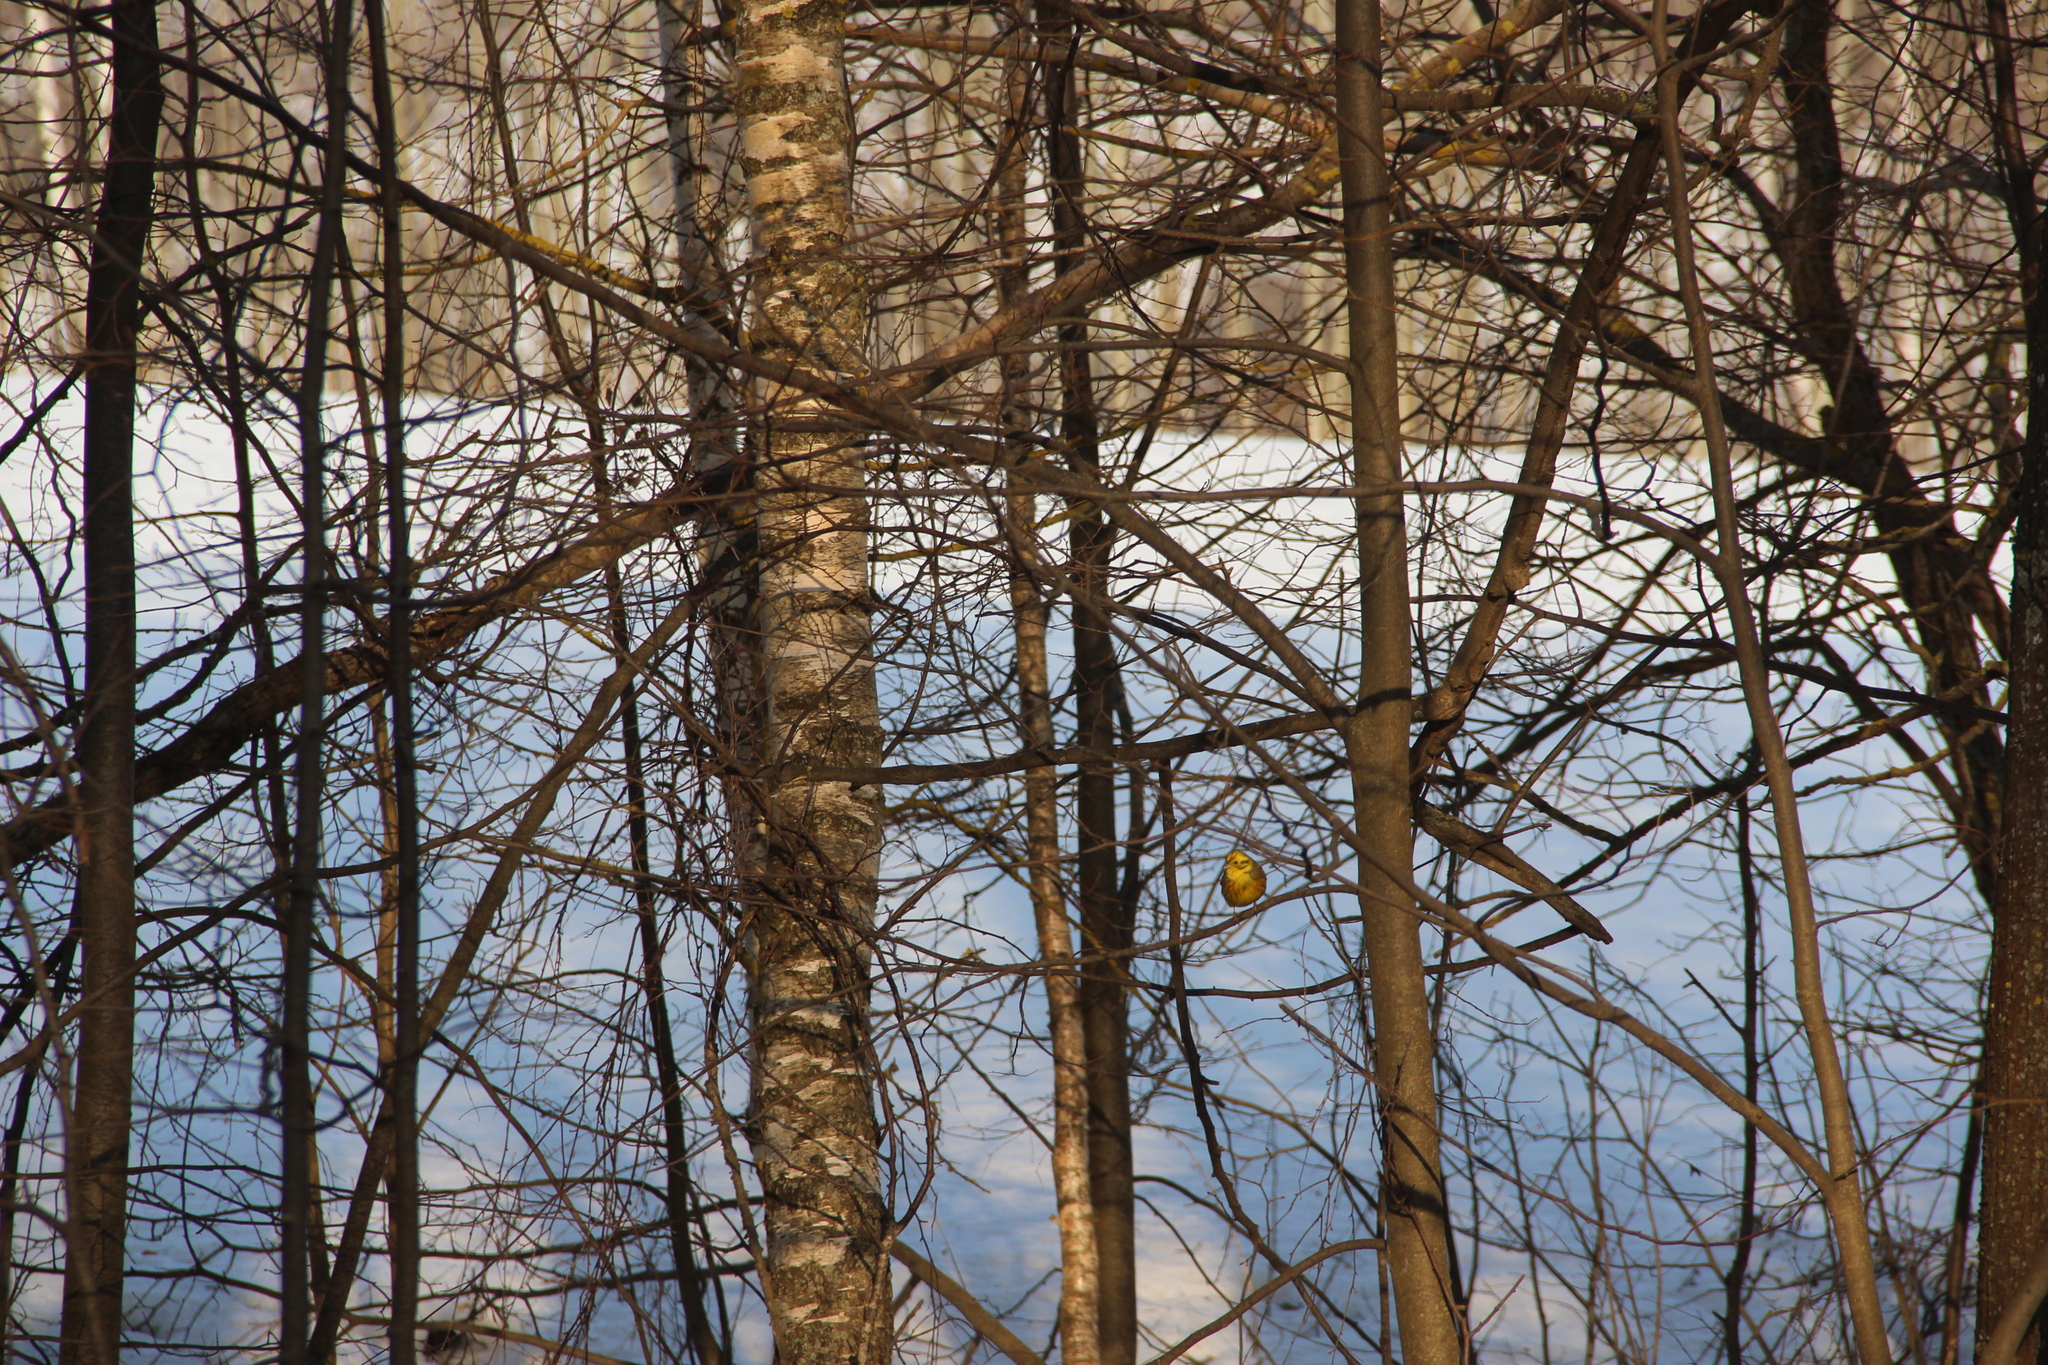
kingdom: Animalia
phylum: Chordata
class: Aves
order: Passeriformes
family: Emberizidae
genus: Emberiza
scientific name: Emberiza citrinella
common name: Yellowhammer
